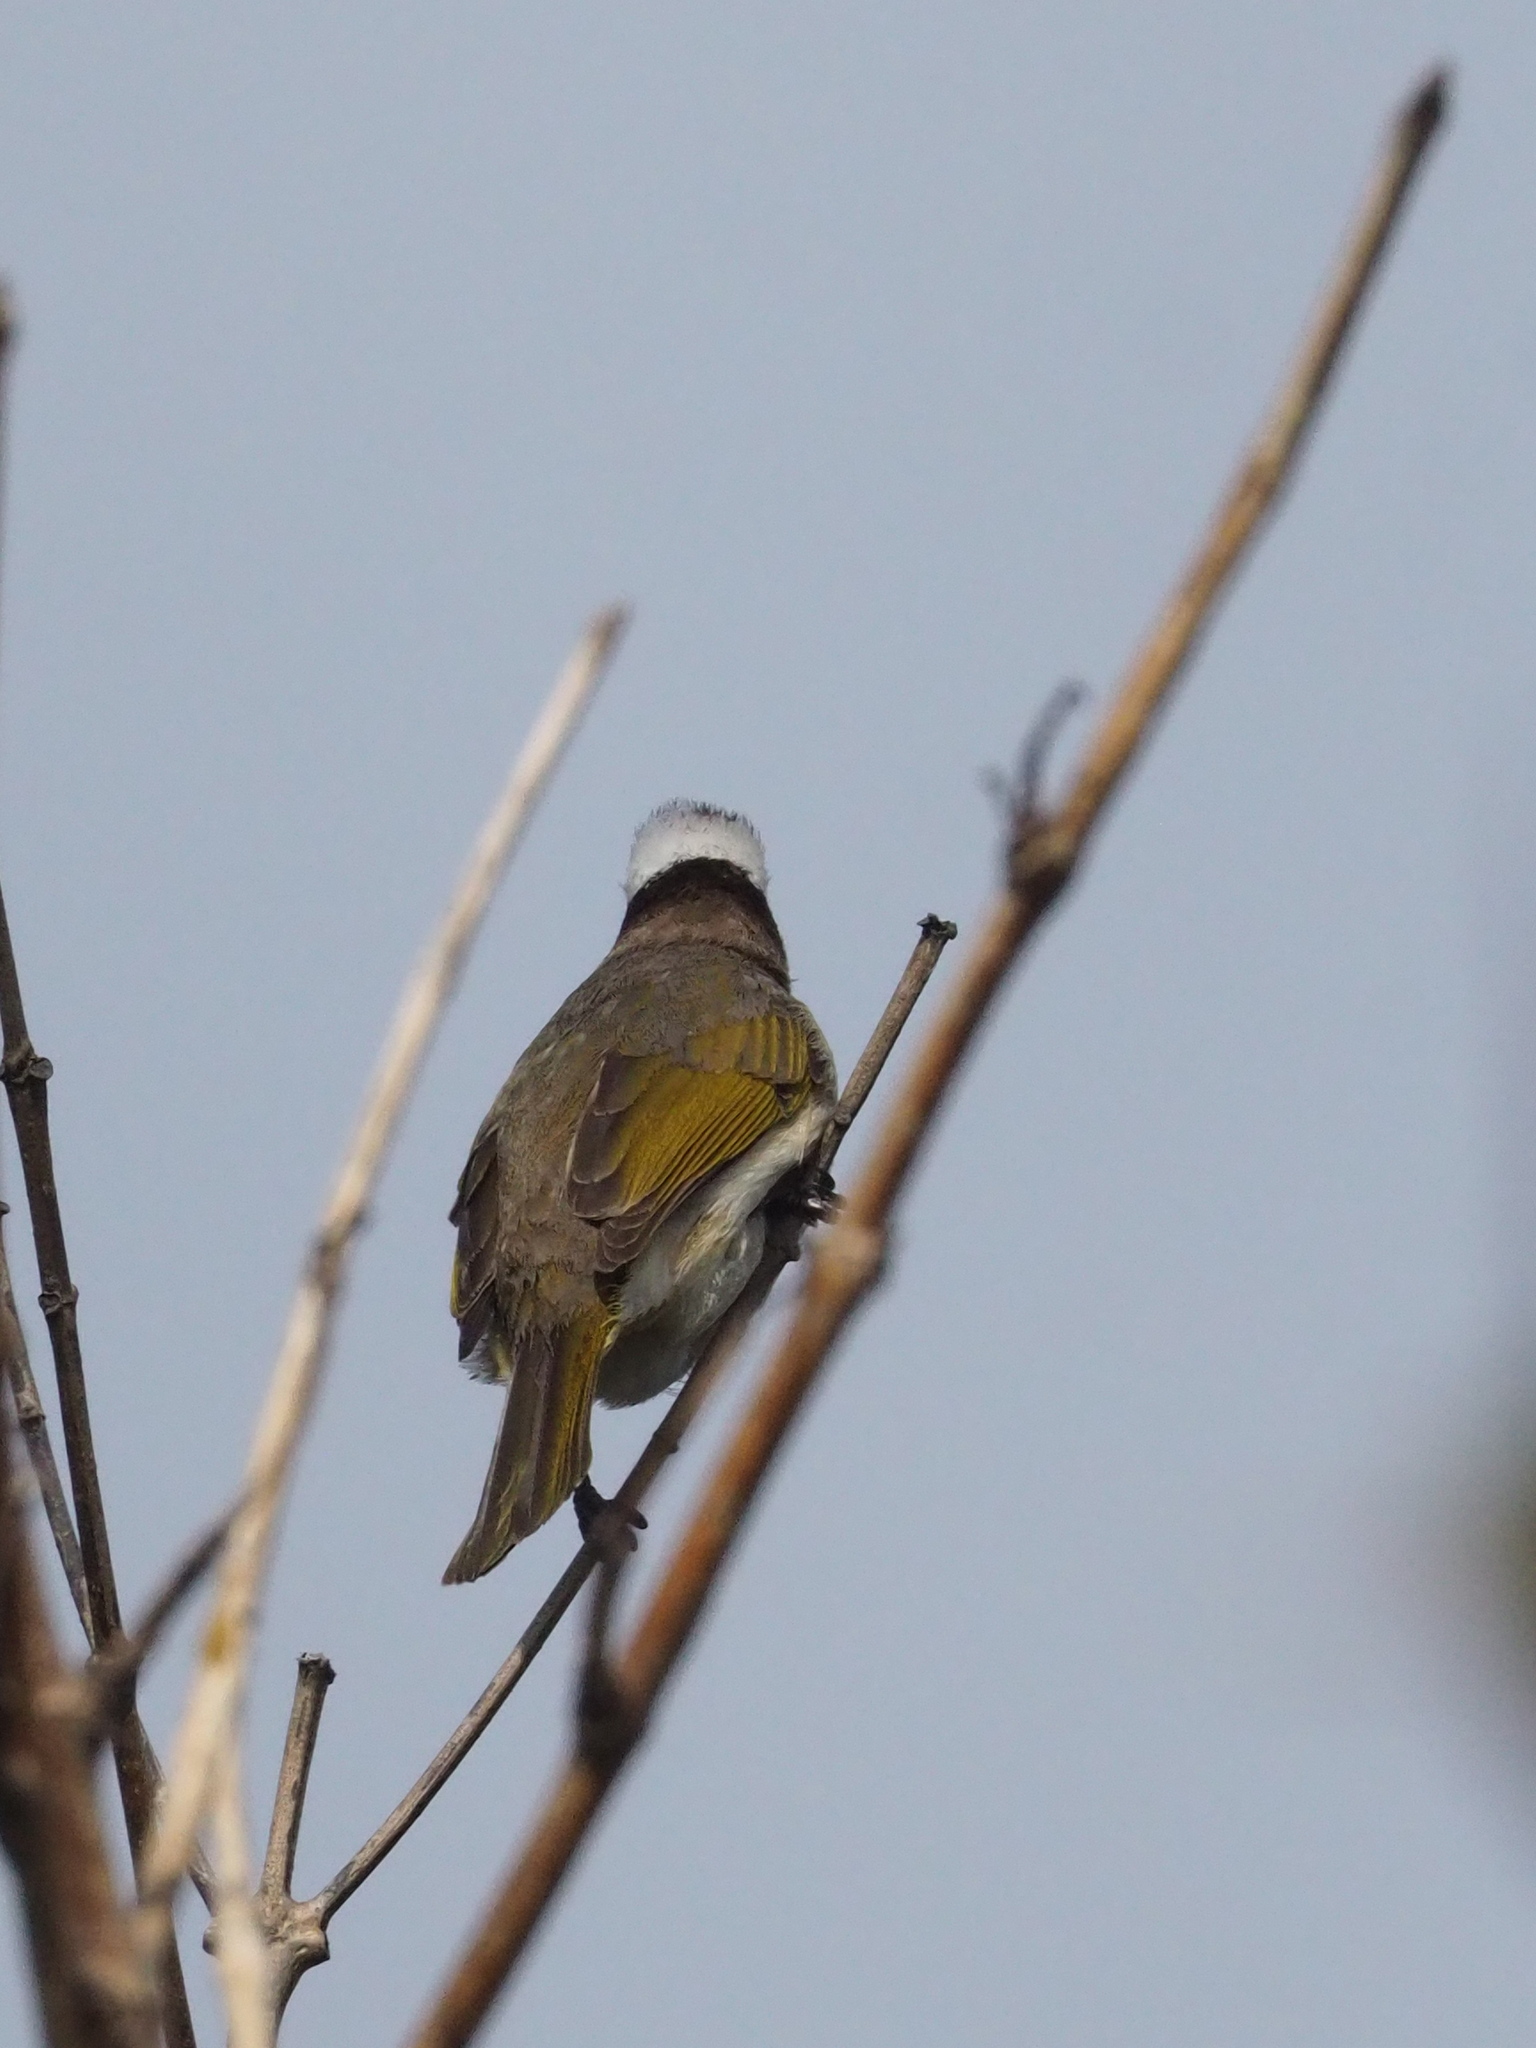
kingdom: Animalia
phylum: Chordata
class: Aves
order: Passeriformes
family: Pycnonotidae
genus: Pycnonotus
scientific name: Pycnonotus sinensis
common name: Light-vented bulbul
